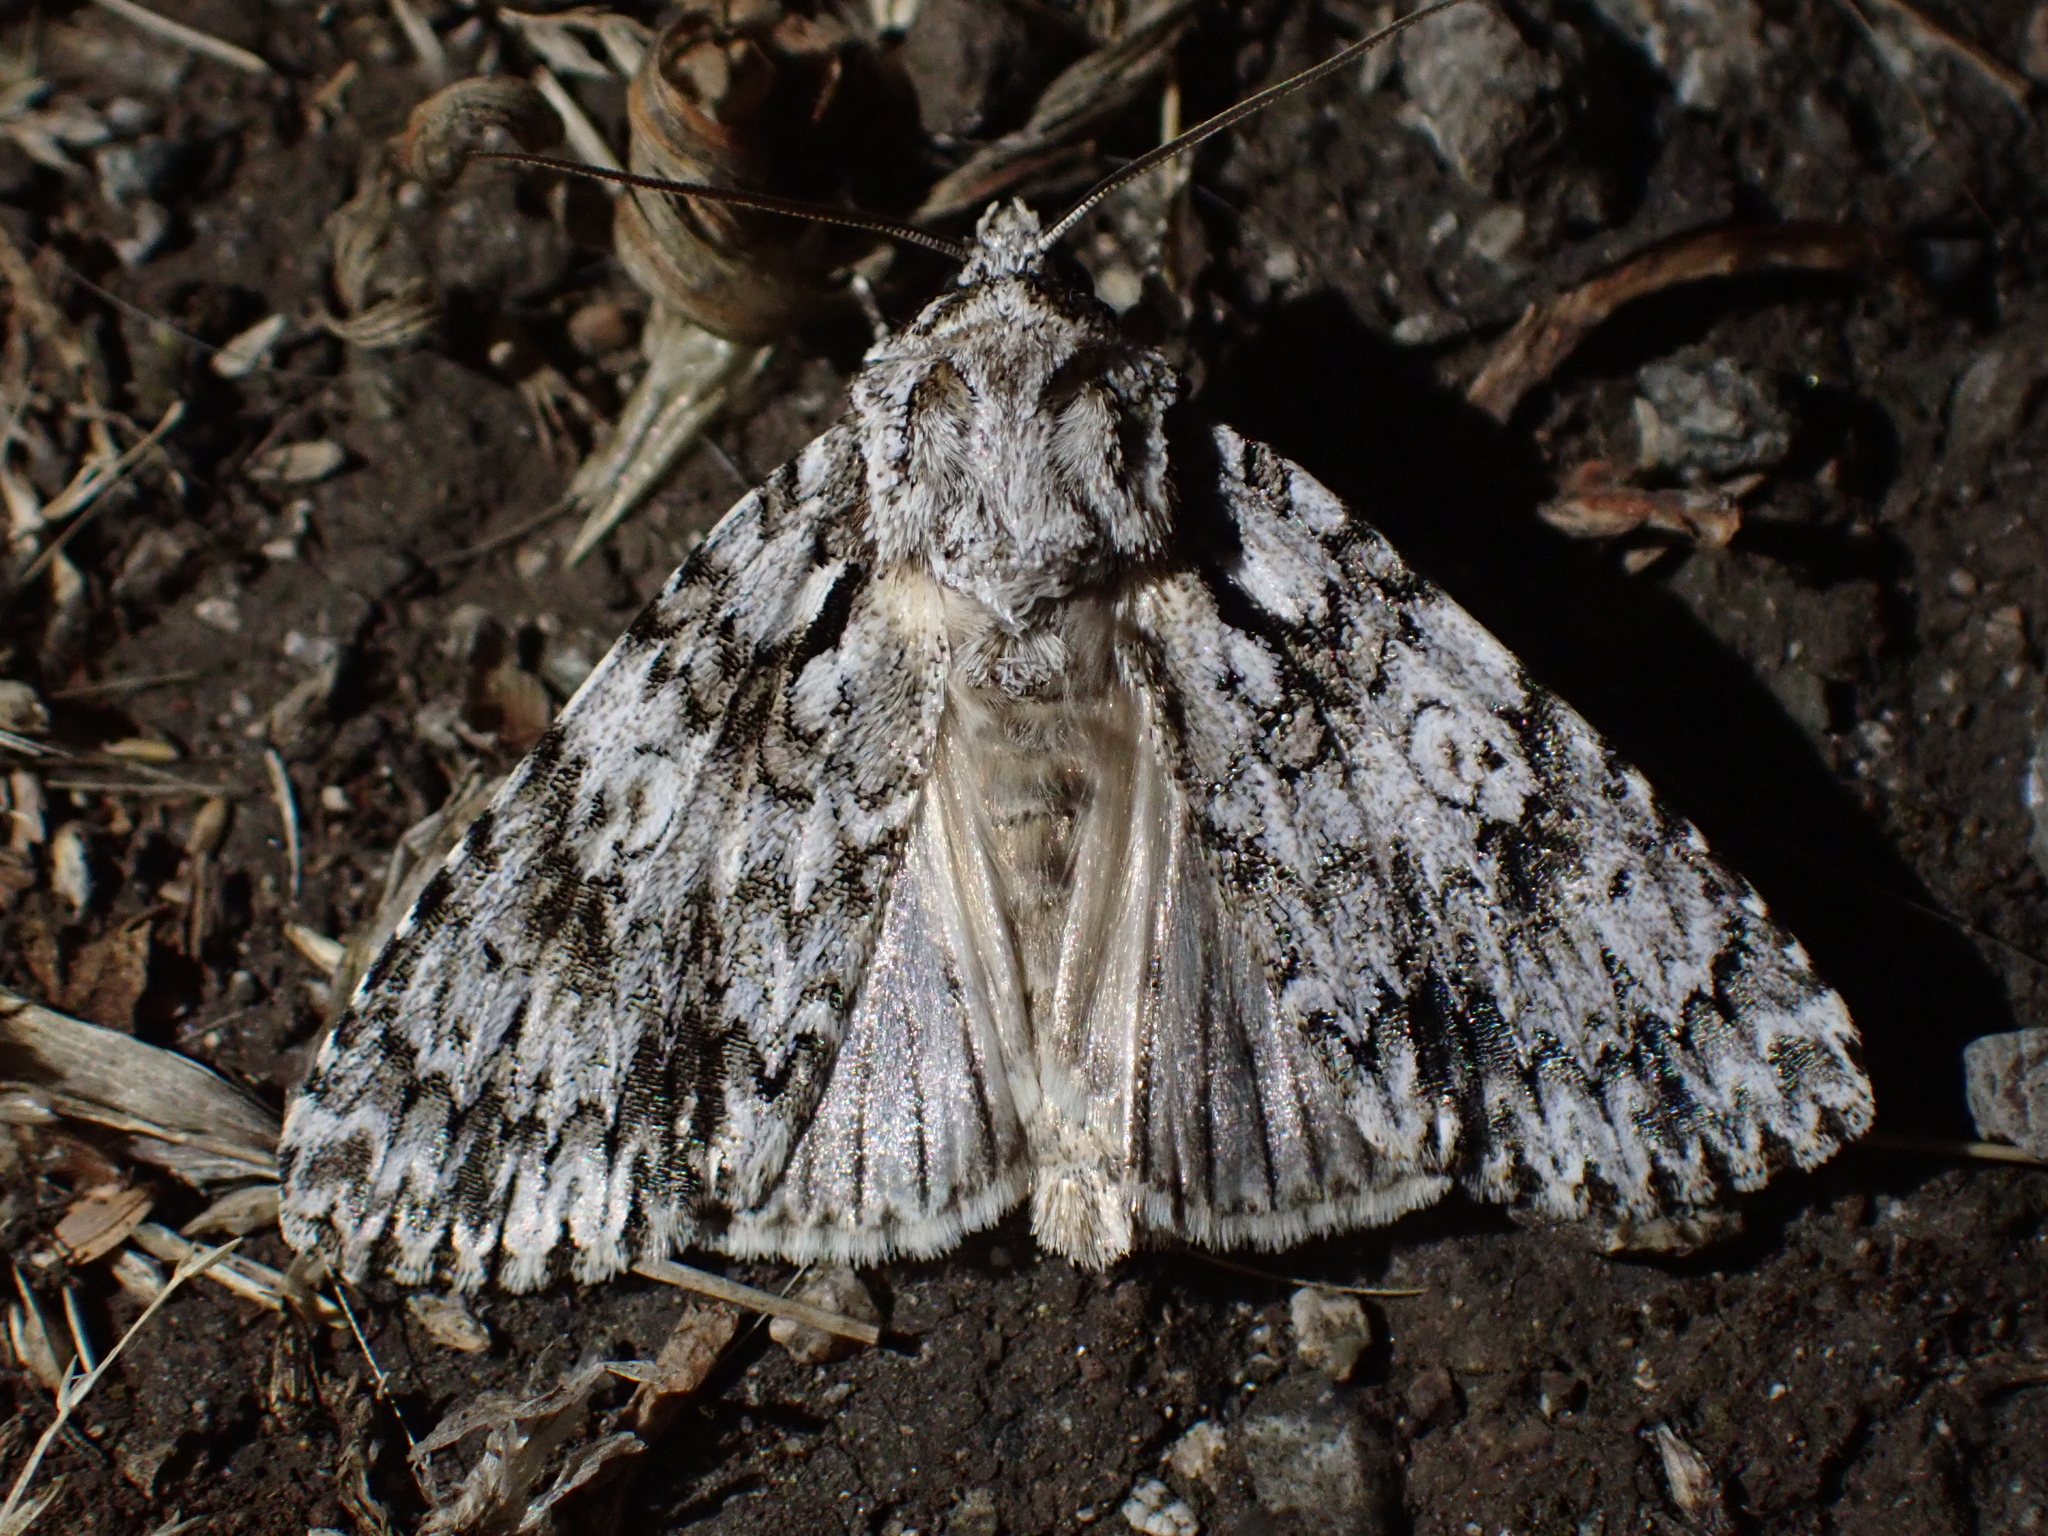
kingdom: Animalia
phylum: Arthropoda
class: Insecta
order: Lepidoptera
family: Noctuidae
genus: Acronicta
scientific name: Acronicta marmorata
